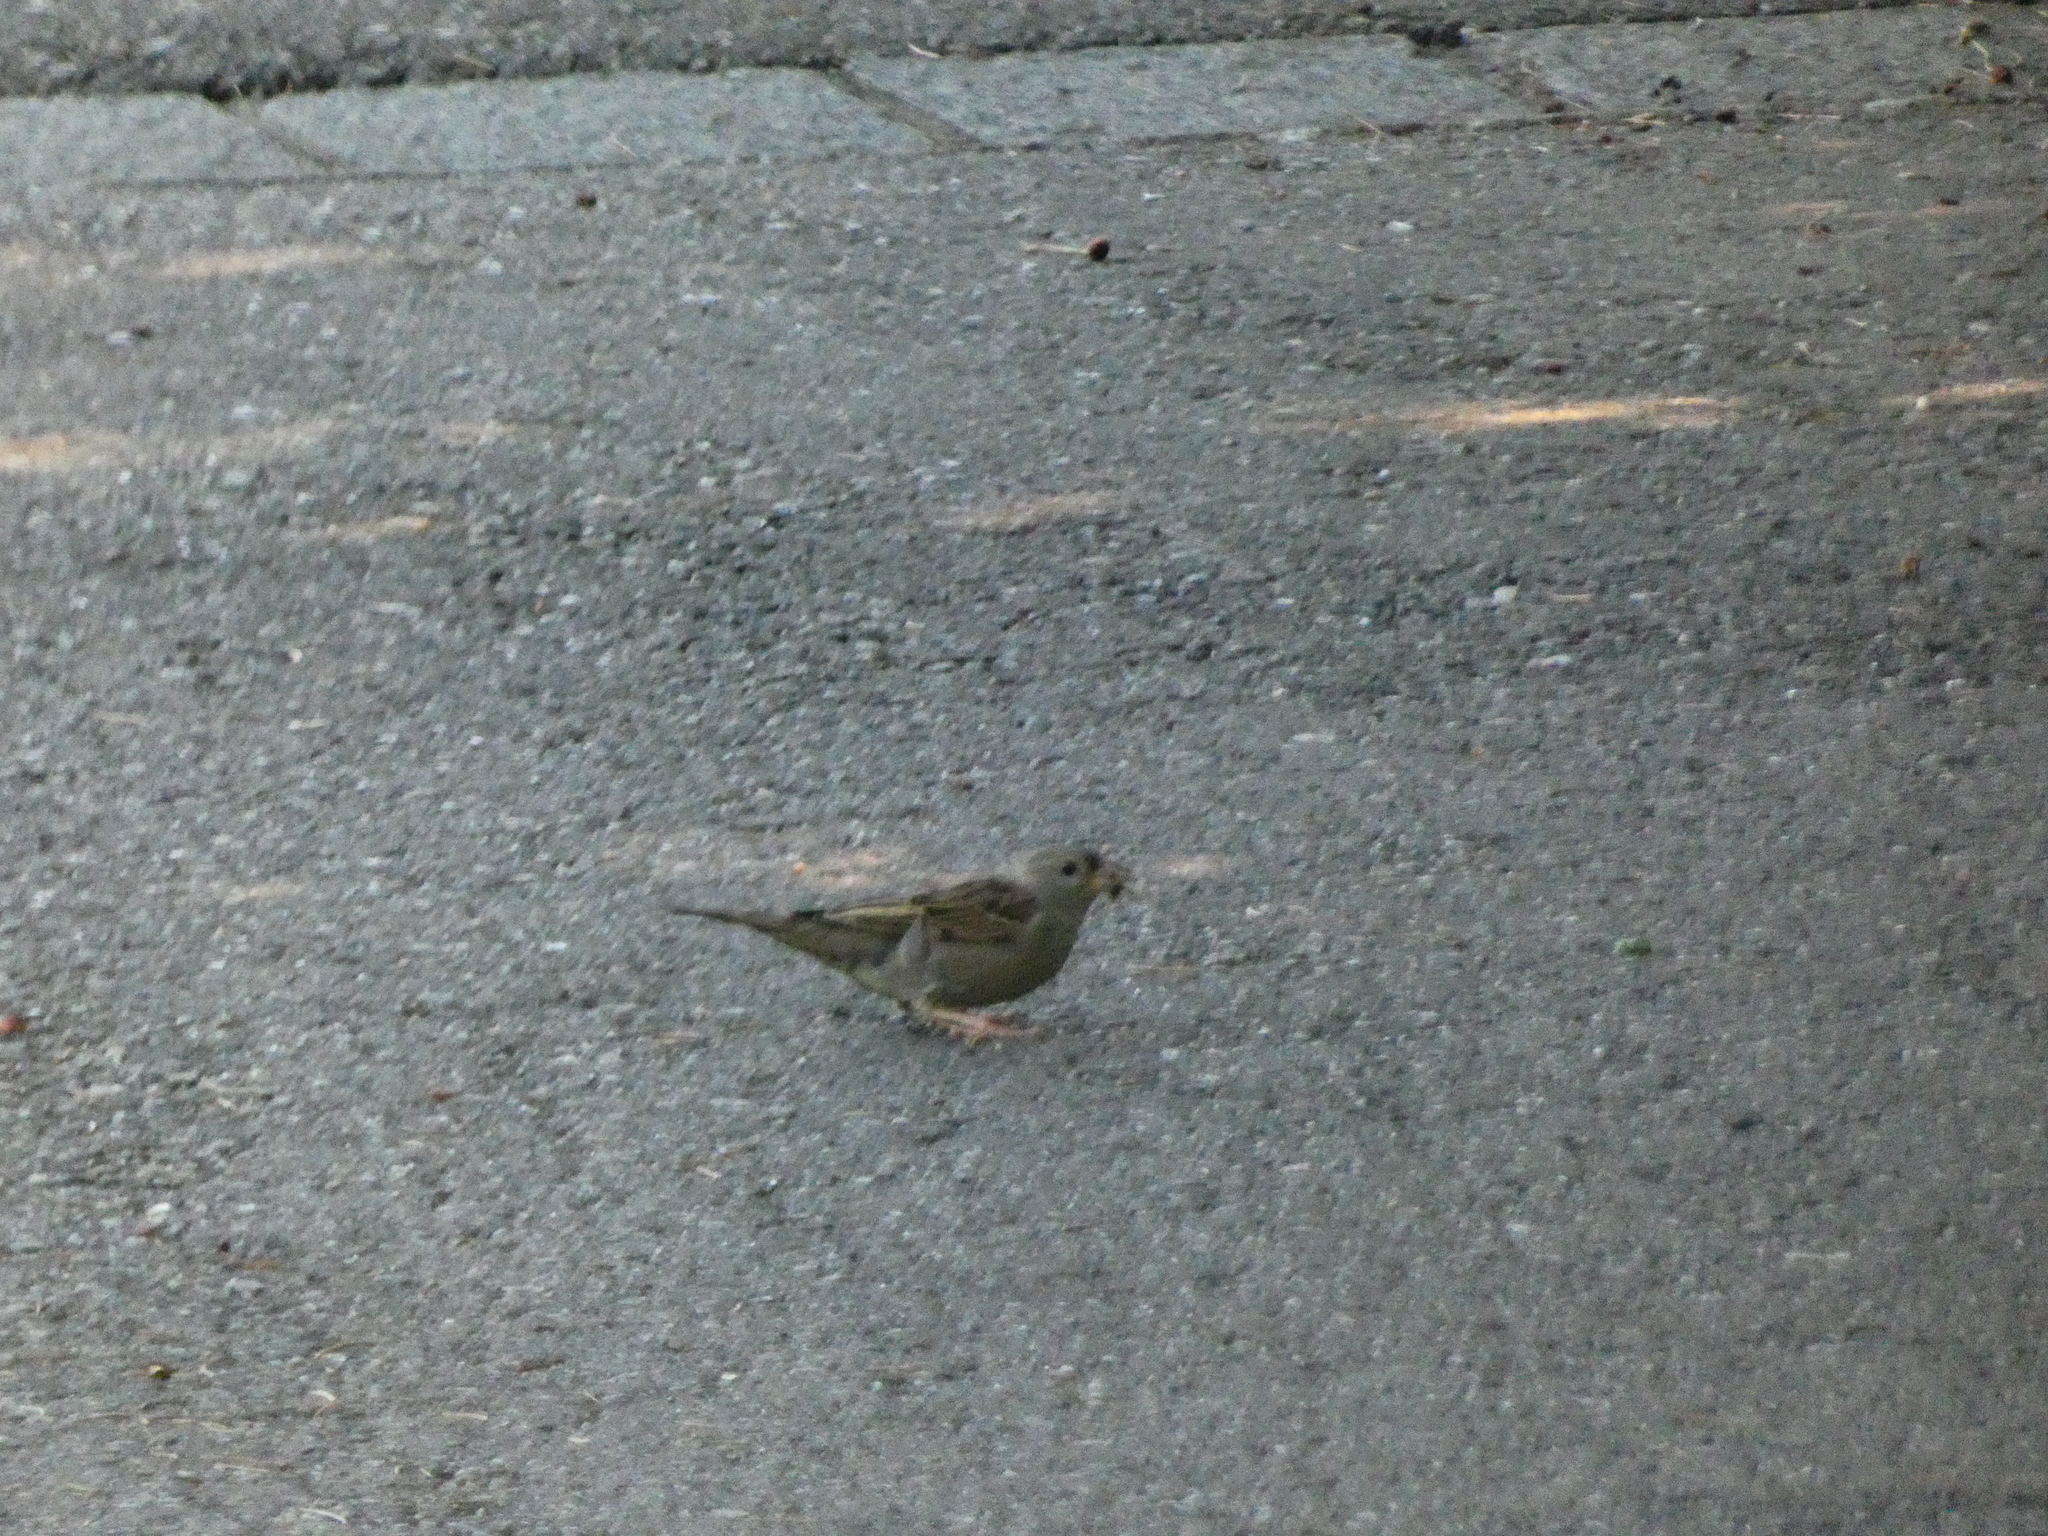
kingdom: Animalia
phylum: Chordata
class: Aves
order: Passeriformes
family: Passeridae
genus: Passer
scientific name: Passer domesticus
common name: House sparrow
